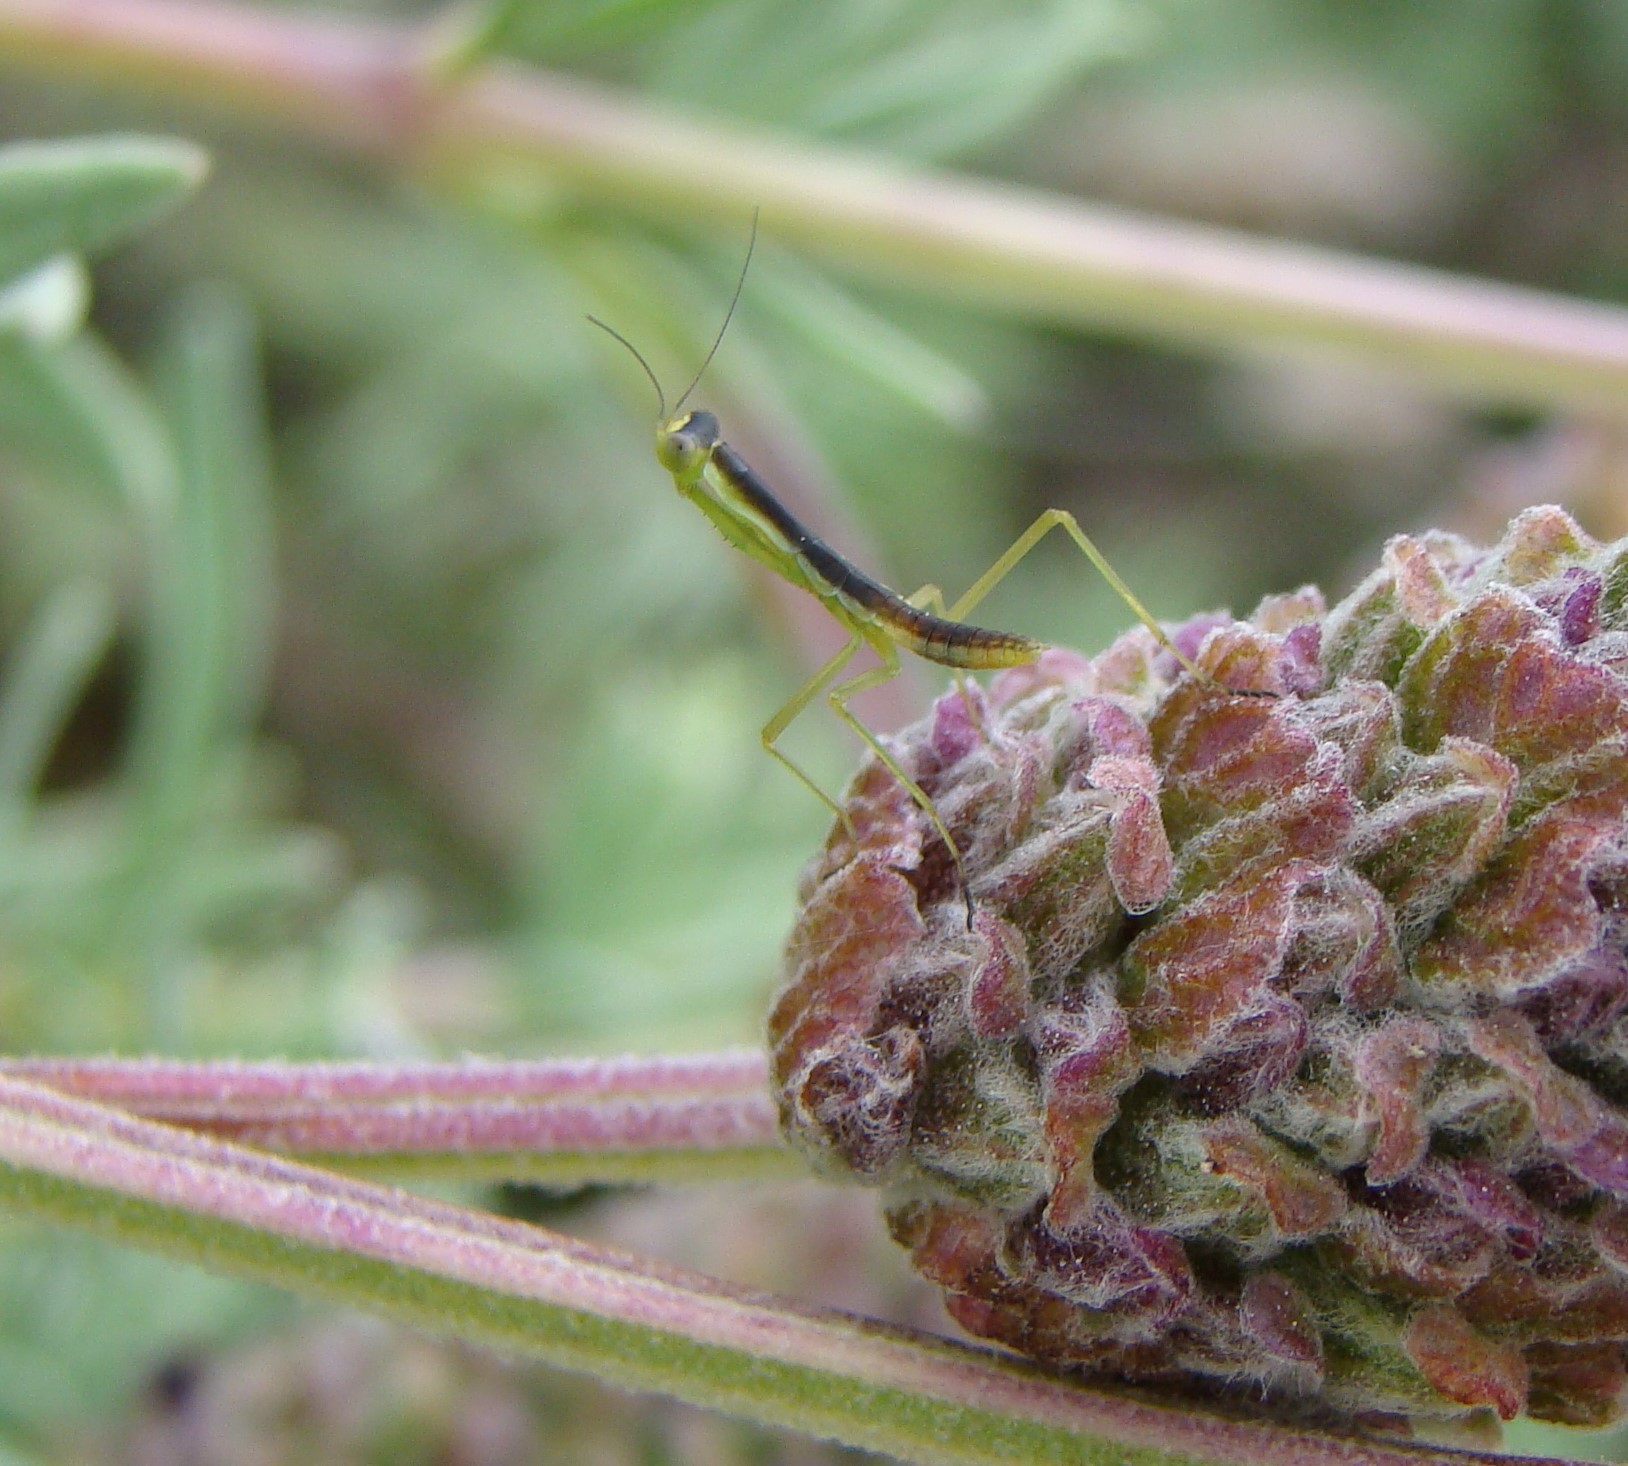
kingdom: Animalia
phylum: Arthropoda
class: Insecta
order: Mantodea
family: Mantidae
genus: Orthodera
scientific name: Orthodera novaezealandiae
